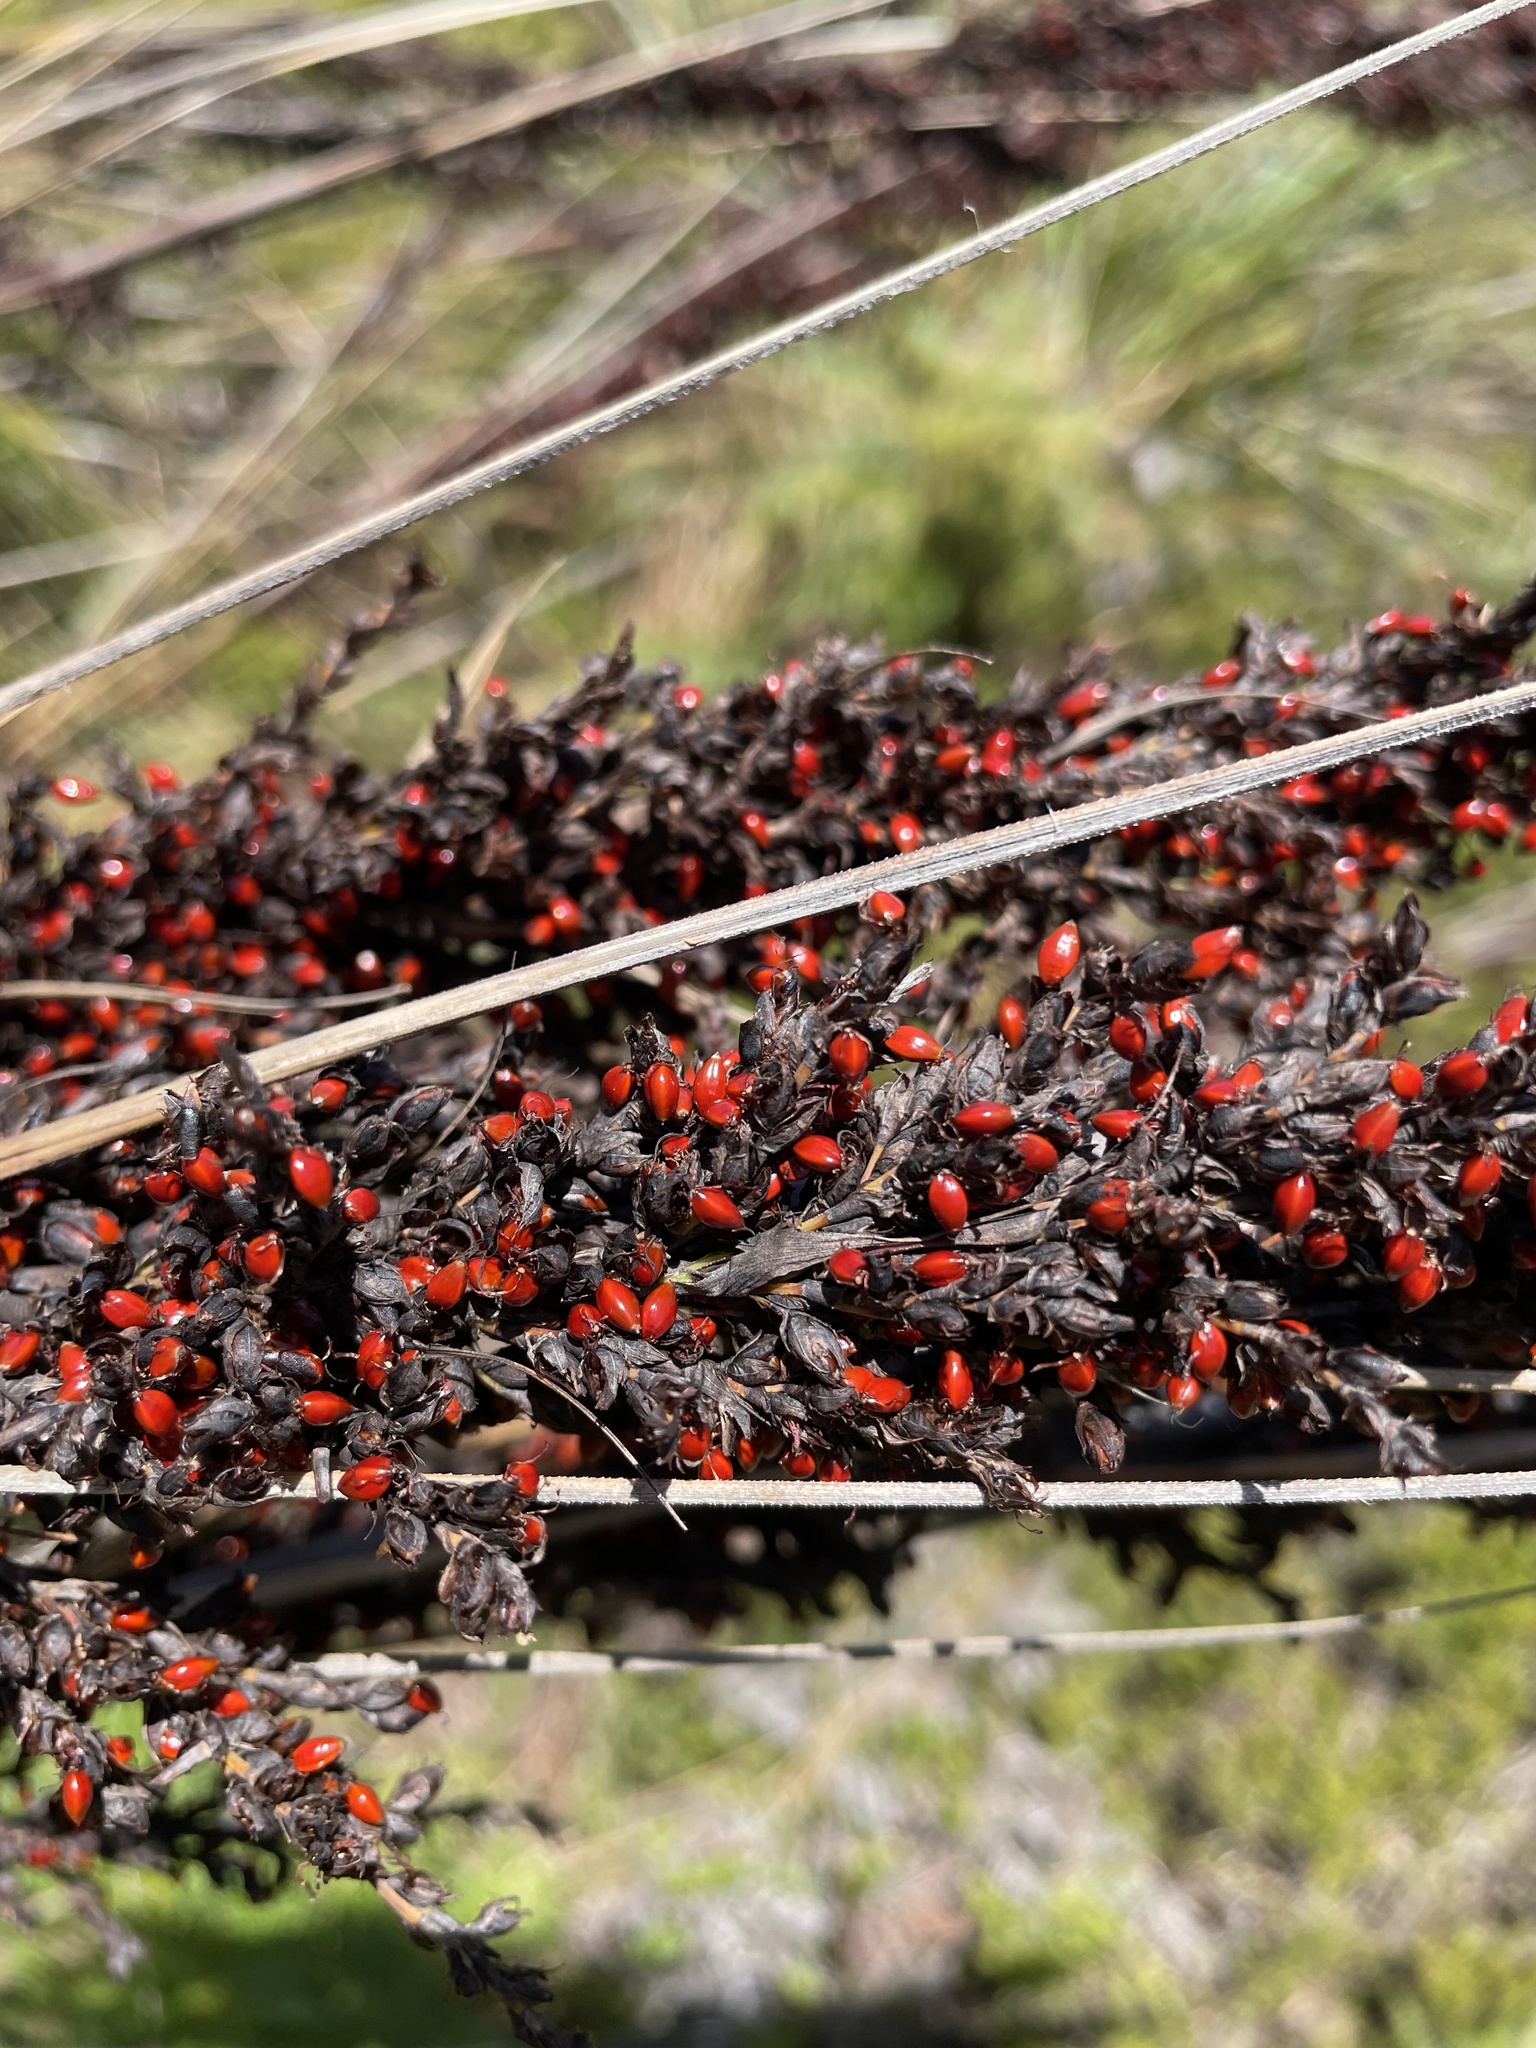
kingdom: Plantae
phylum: Tracheophyta
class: Liliopsida
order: Poales
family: Cyperaceae
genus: Gahnia
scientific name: Gahnia sieberiana
